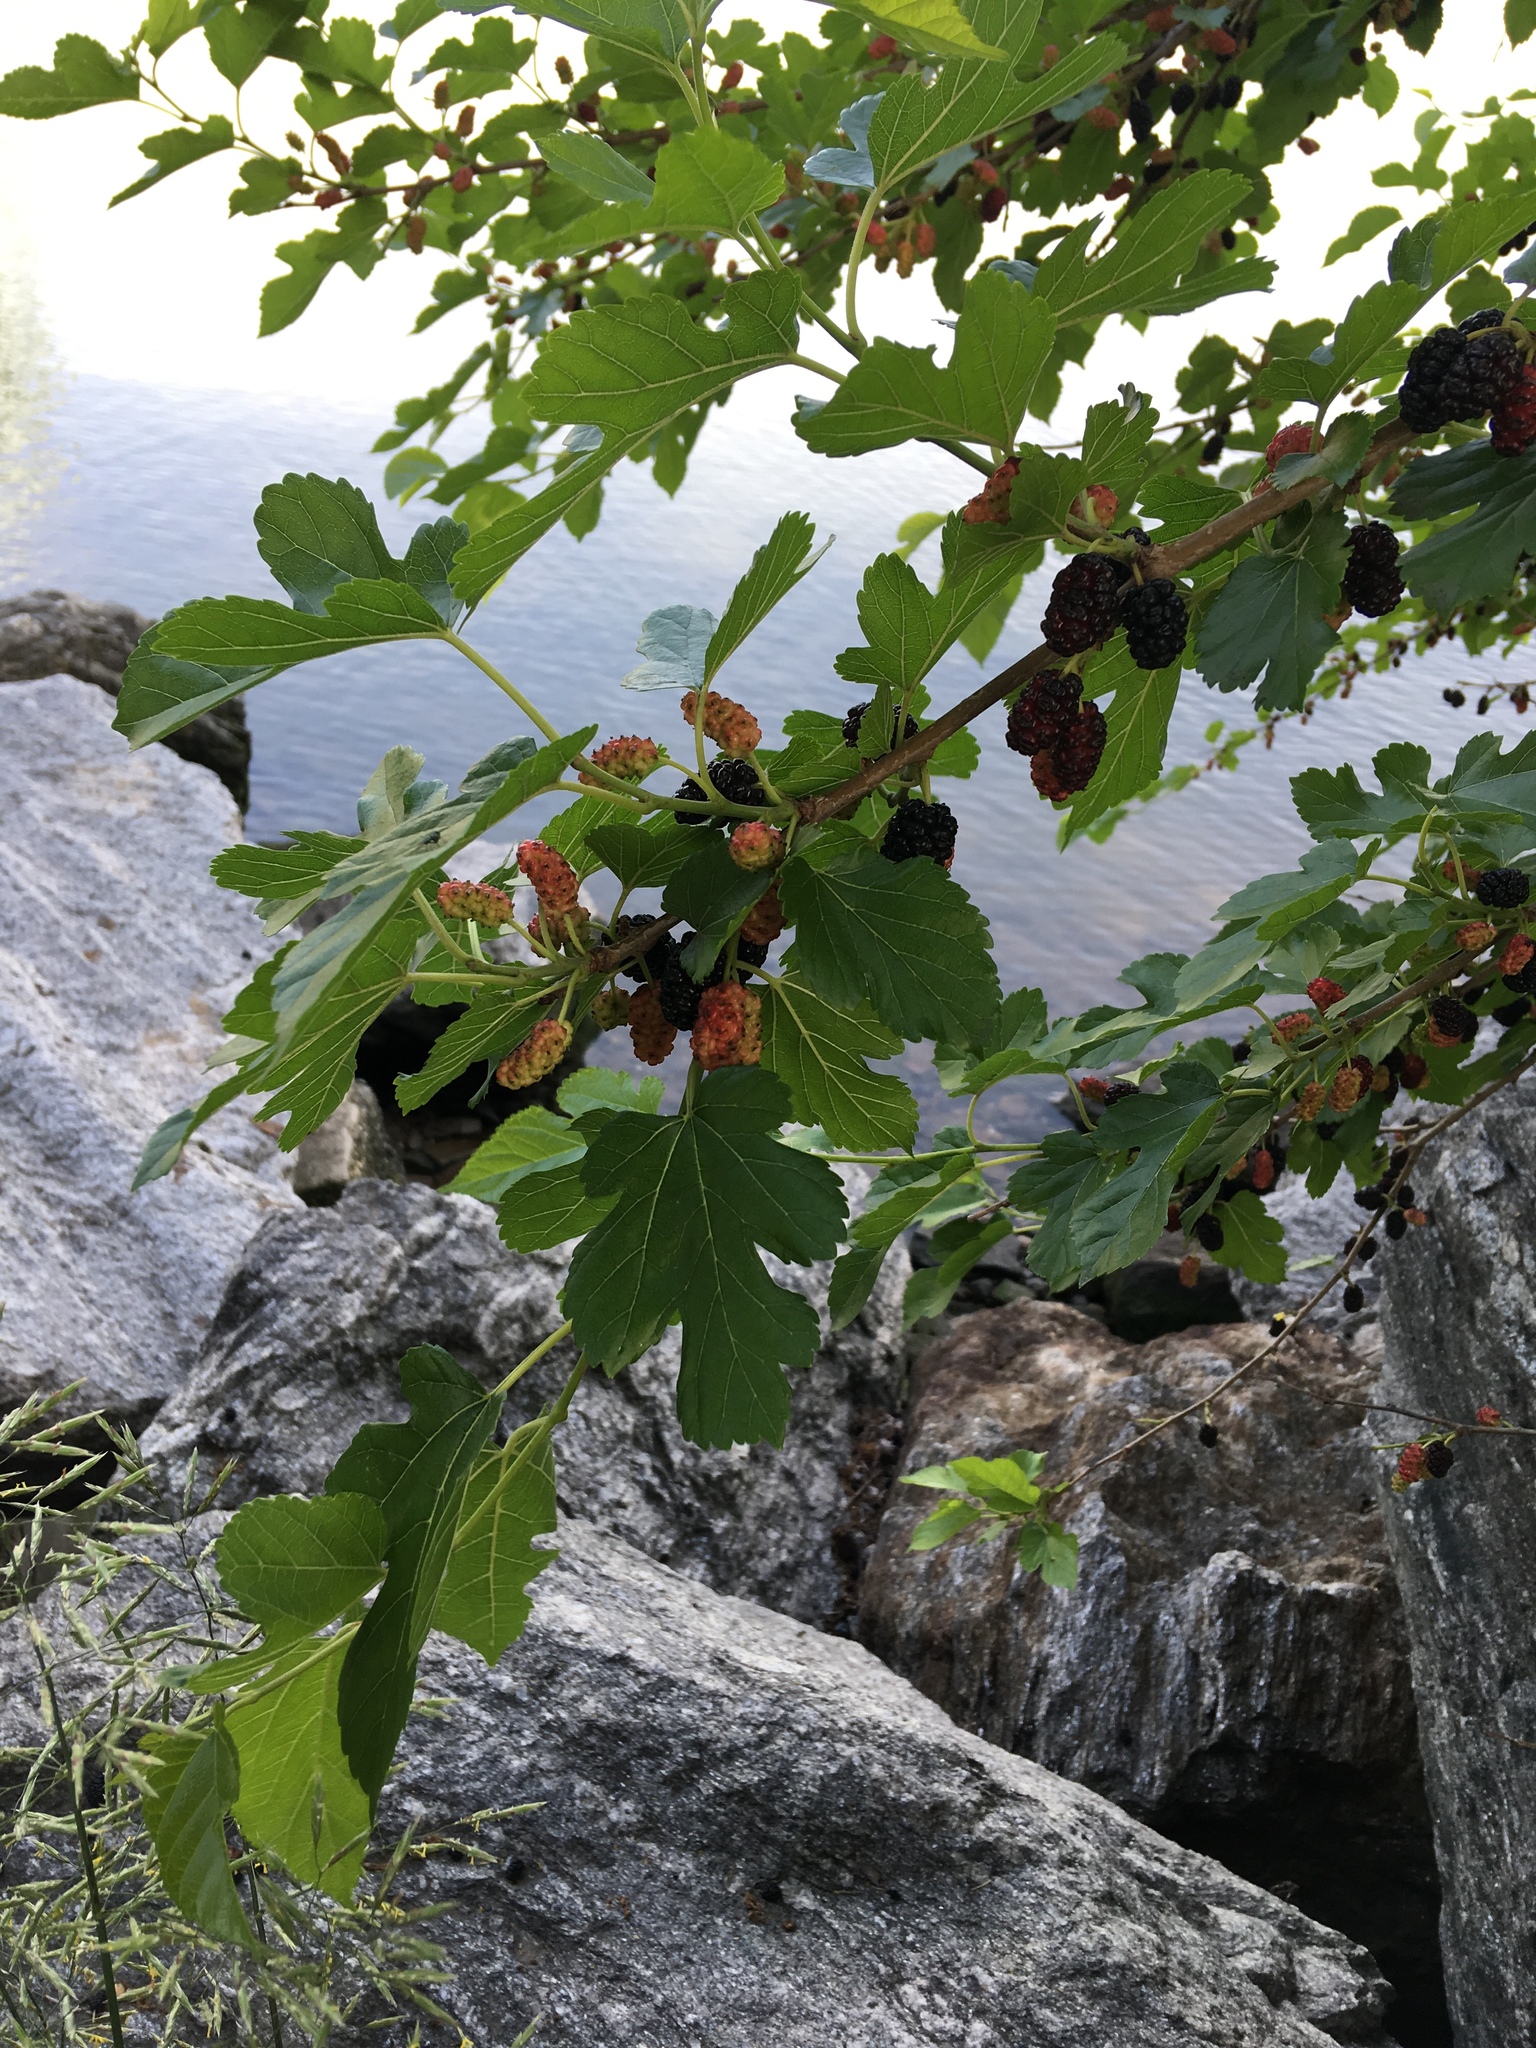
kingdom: Plantae
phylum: Tracheophyta
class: Magnoliopsida
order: Rosales
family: Moraceae
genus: Morus
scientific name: Morus alba
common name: White mulberry
